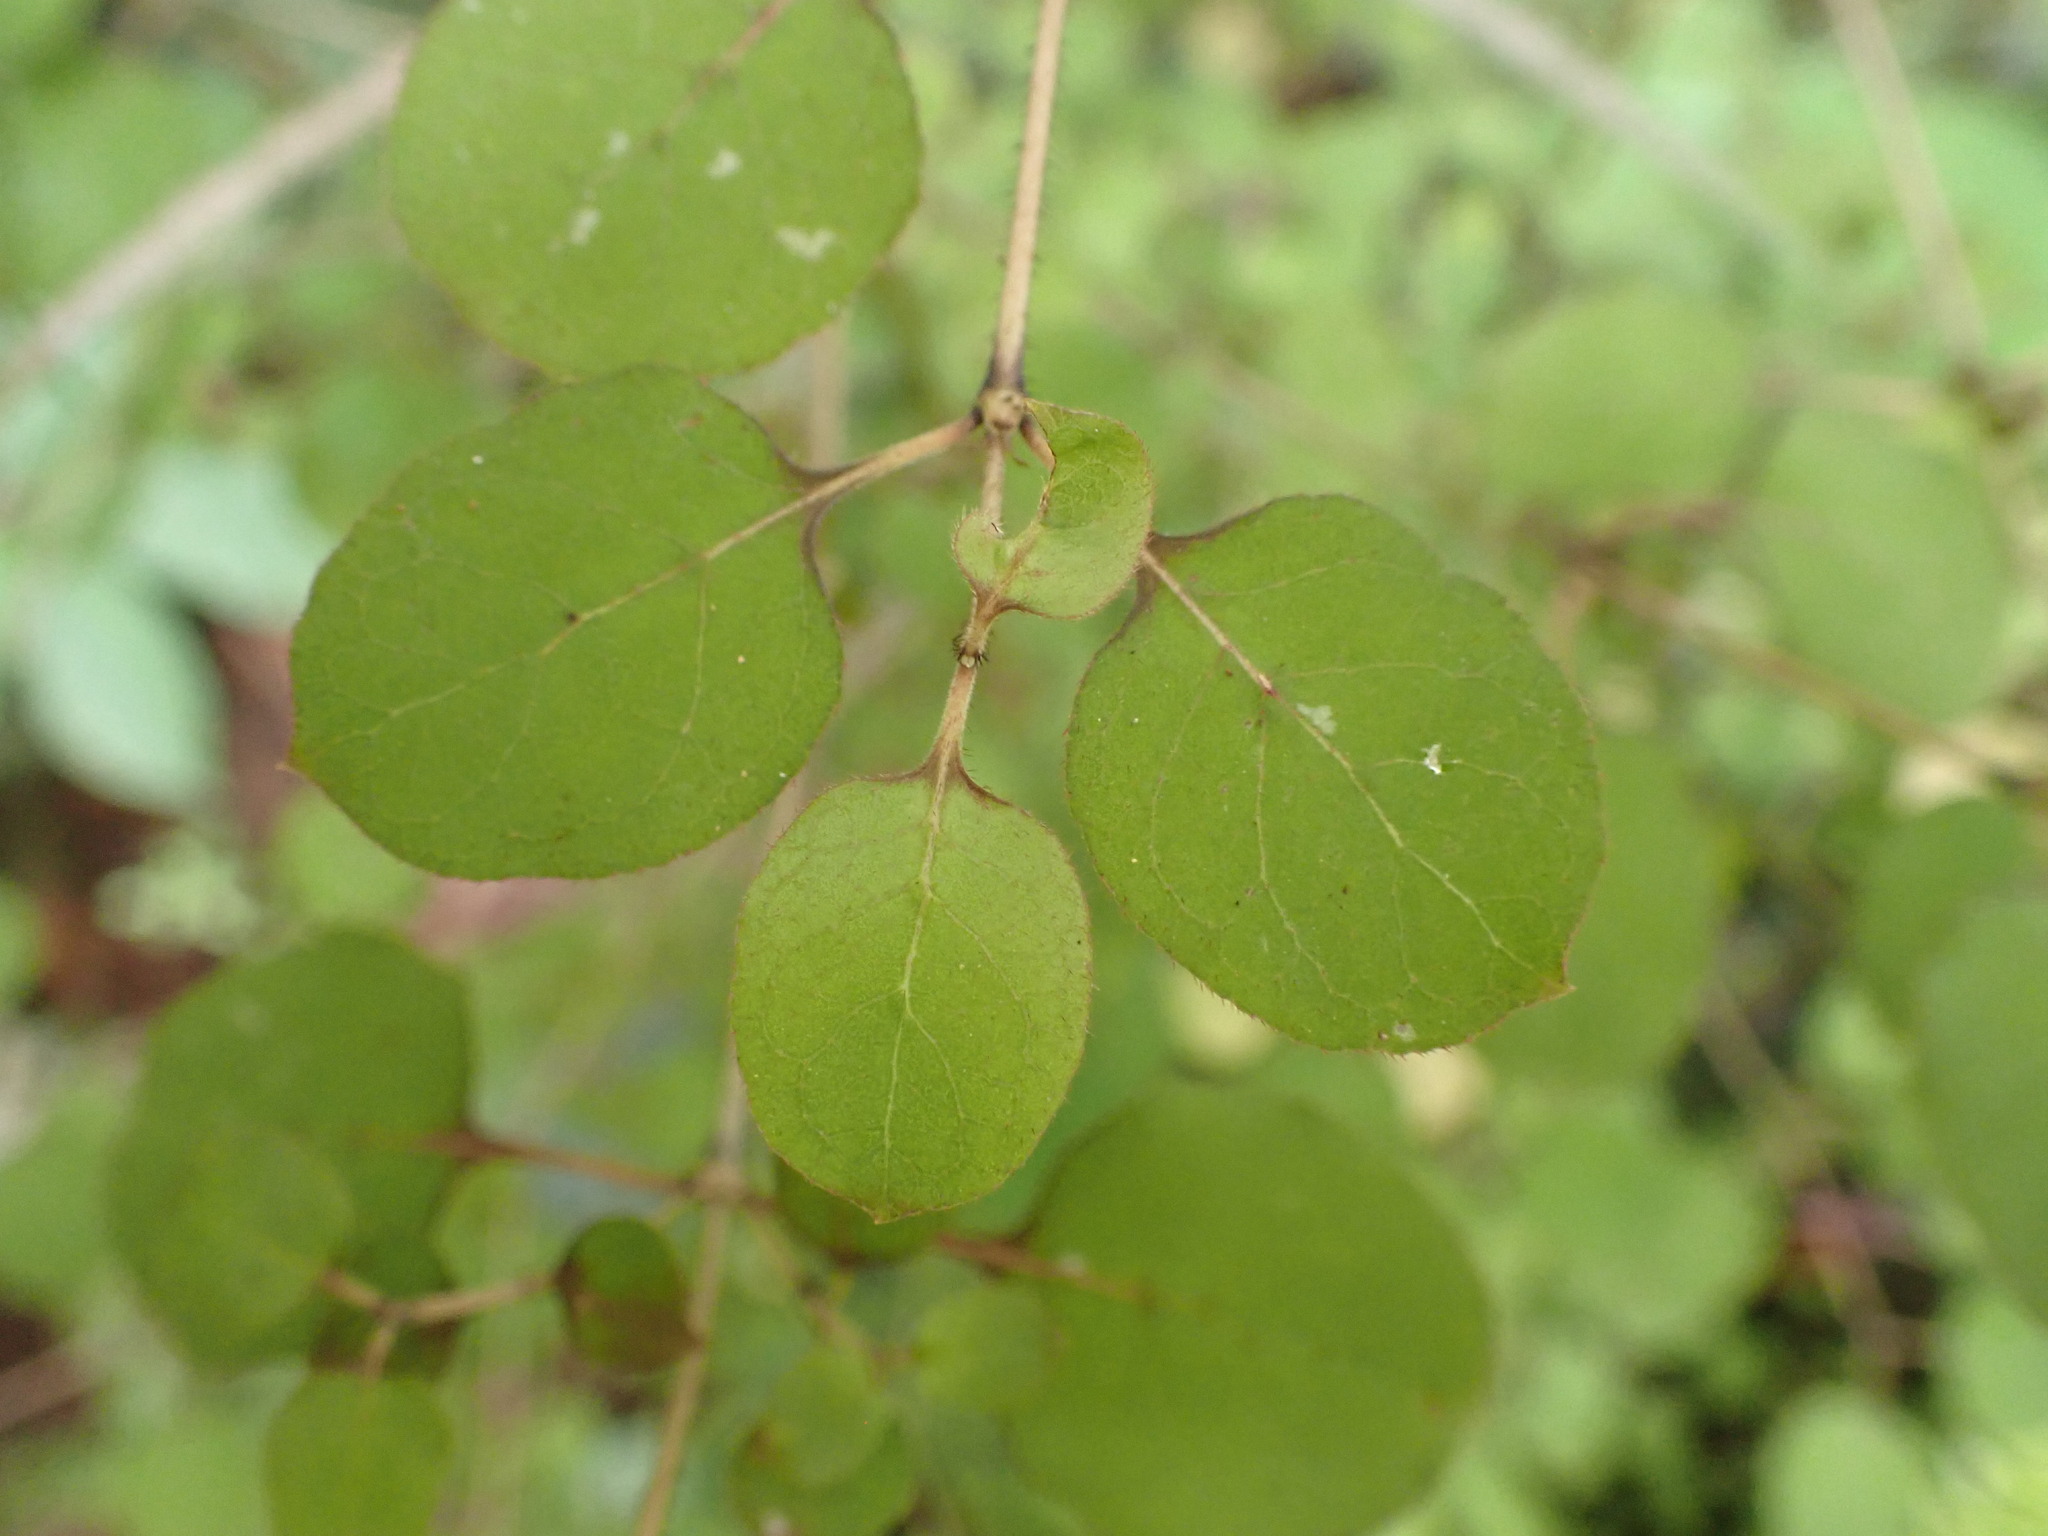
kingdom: Plantae
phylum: Tracheophyta
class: Magnoliopsida
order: Gentianales
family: Rubiaceae
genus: Coprosma
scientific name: Coprosma rotundifolia
